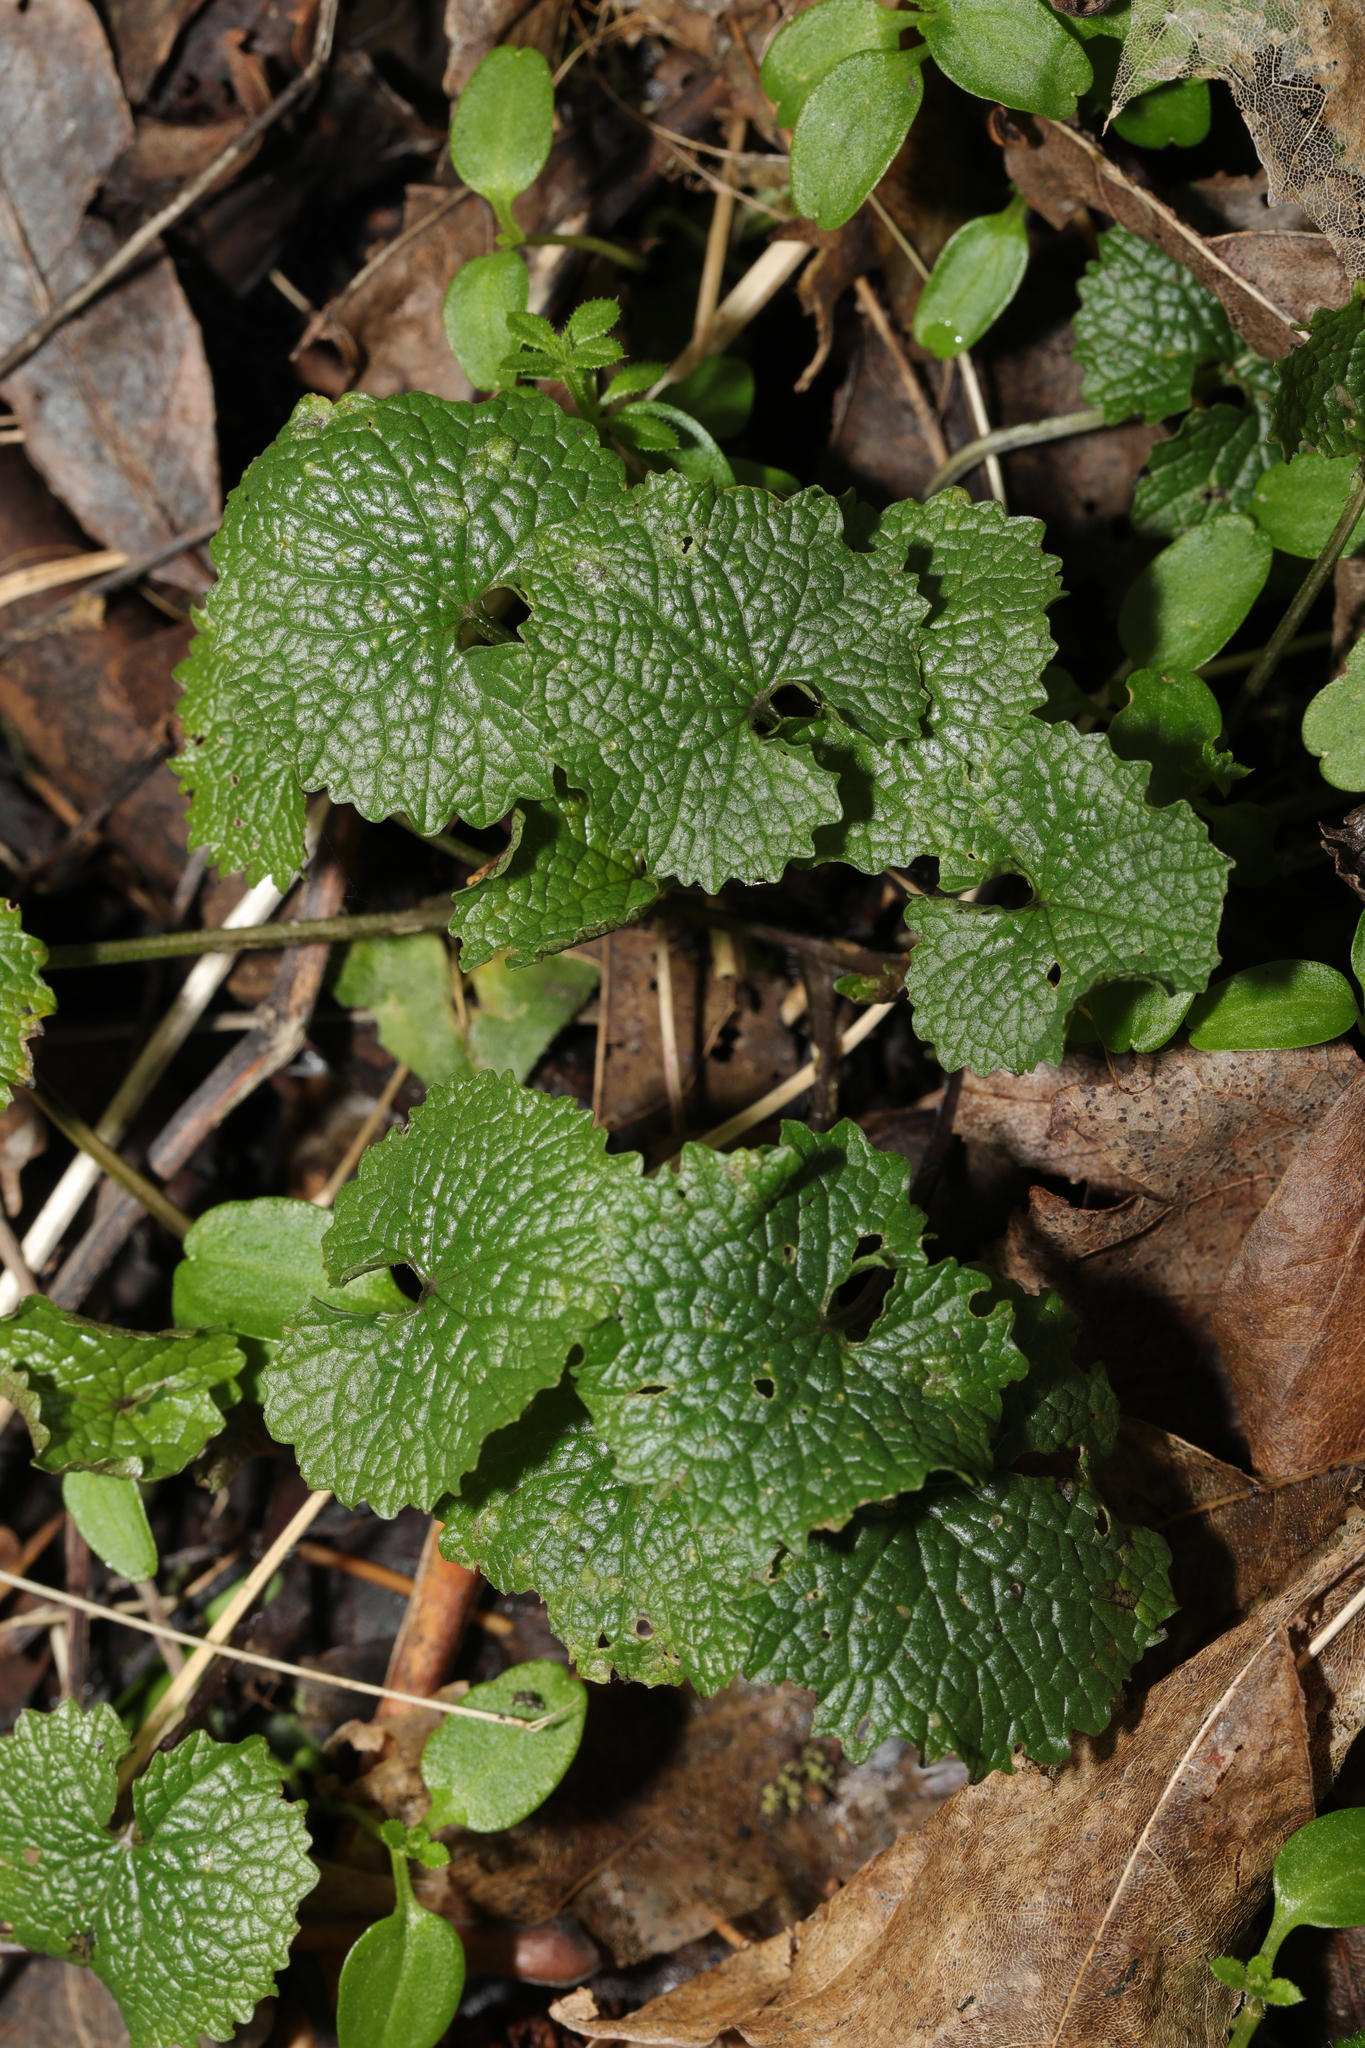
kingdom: Plantae
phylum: Tracheophyta
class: Magnoliopsida
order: Brassicales
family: Brassicaceae
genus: Alliaria
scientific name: Alliaria petiolata
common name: Garlic mustard
